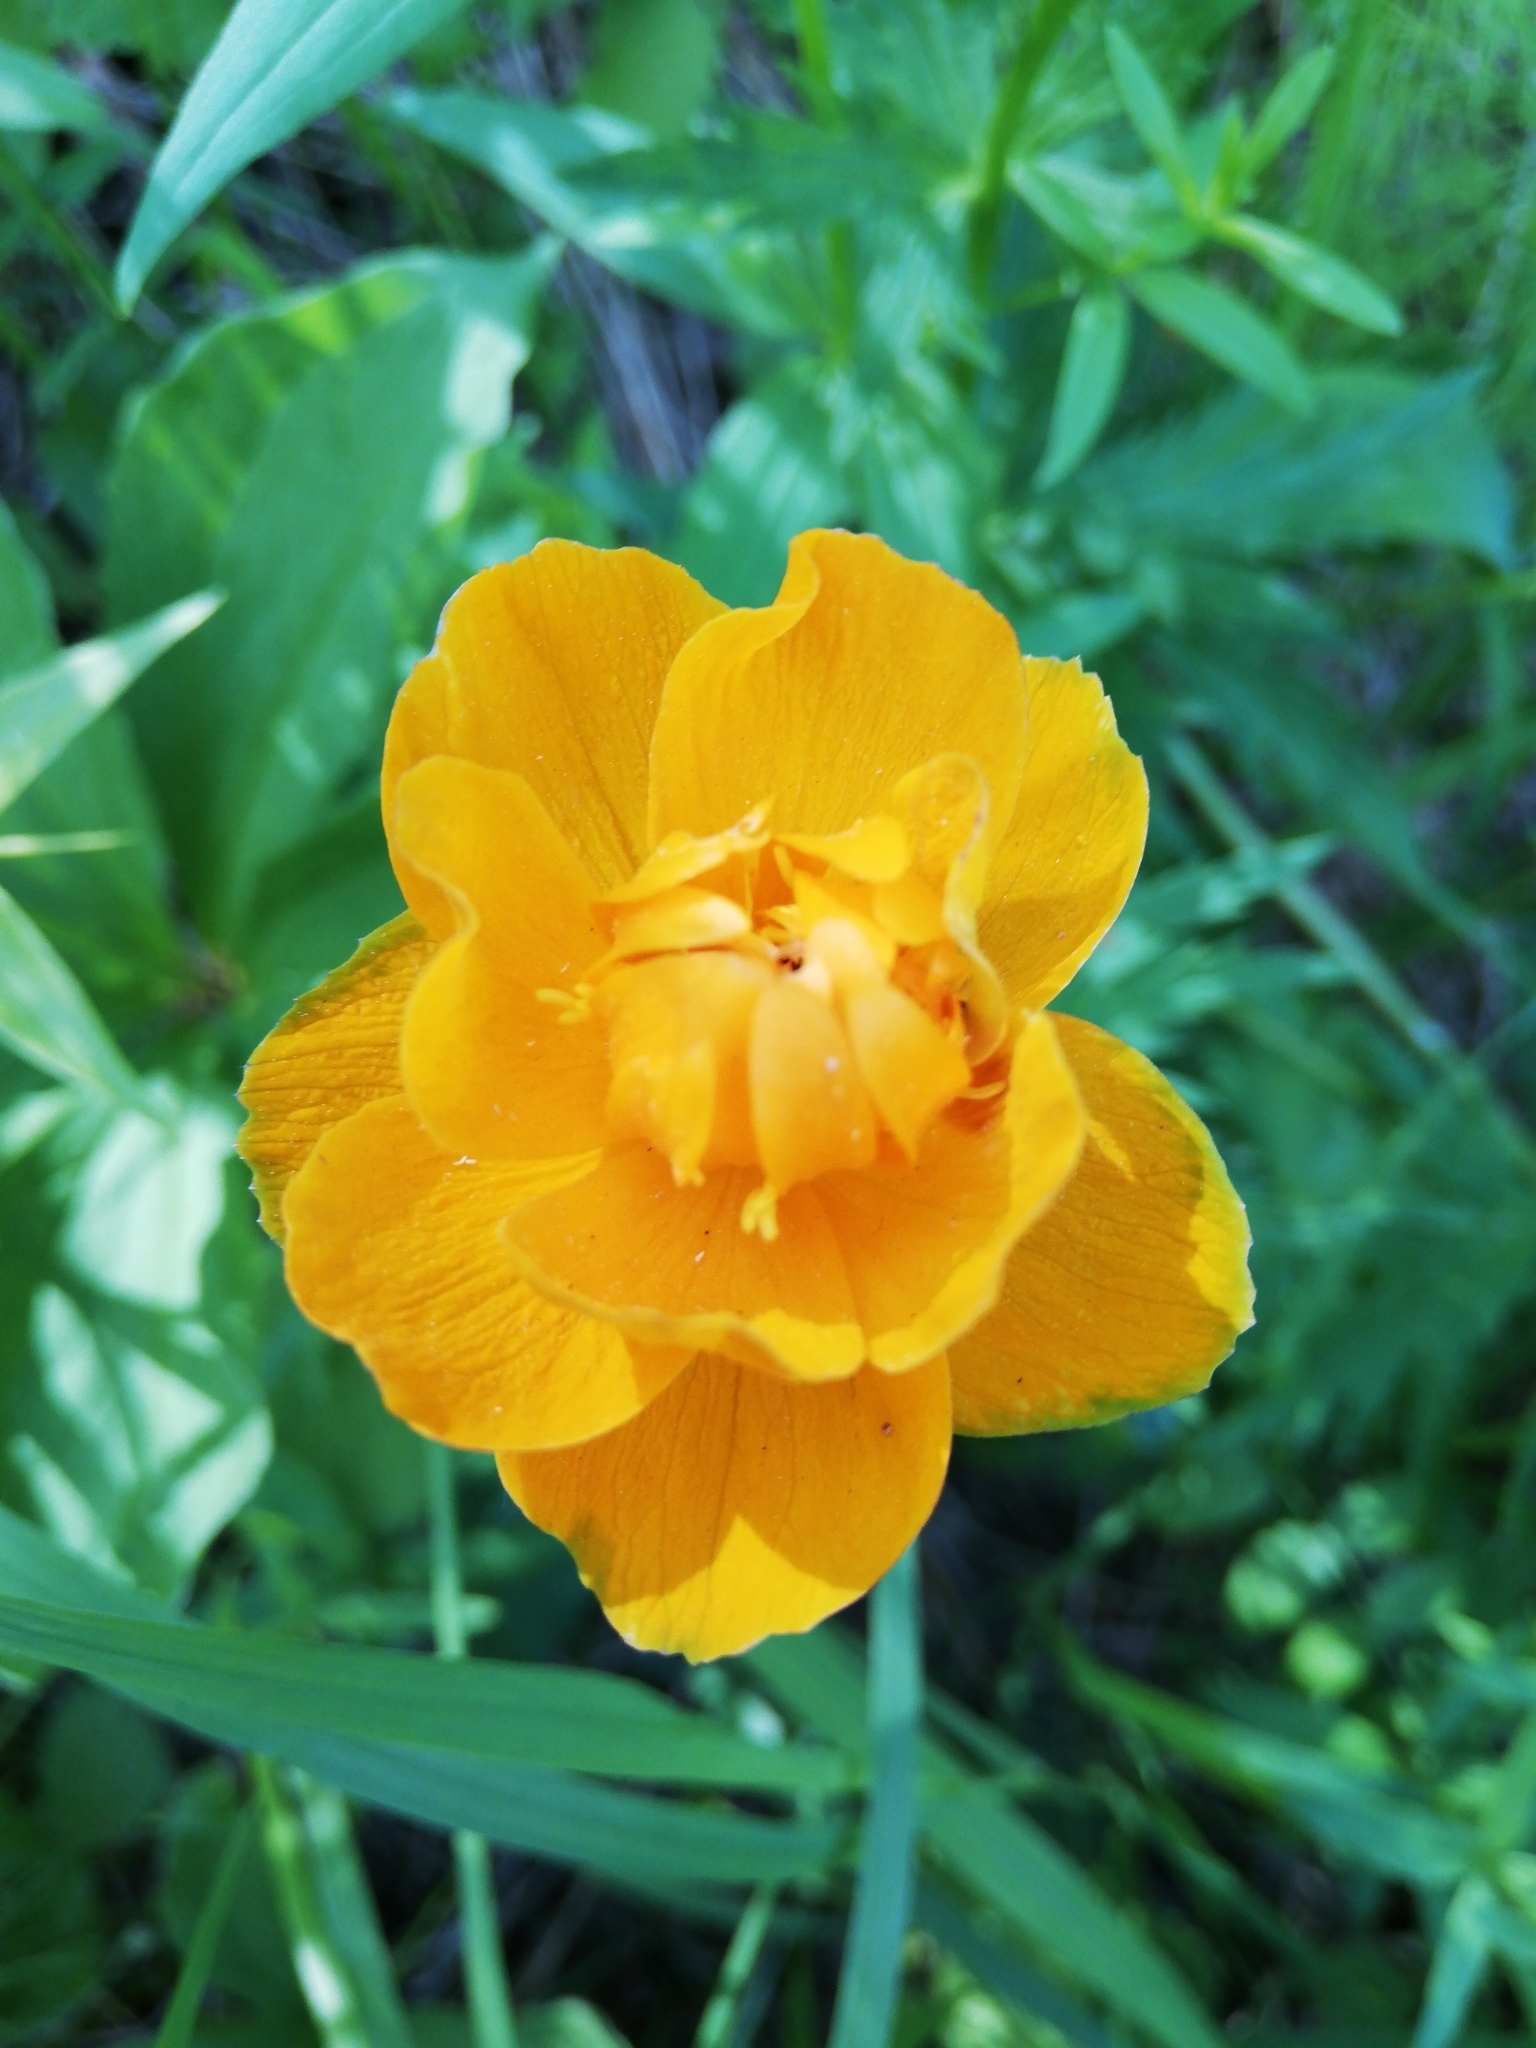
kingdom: Plantae
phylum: Tracheophyta
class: Magnoliopsida
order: Ranunculales
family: Ranunculaceae
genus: Trollius
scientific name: Trollius asiaticus
